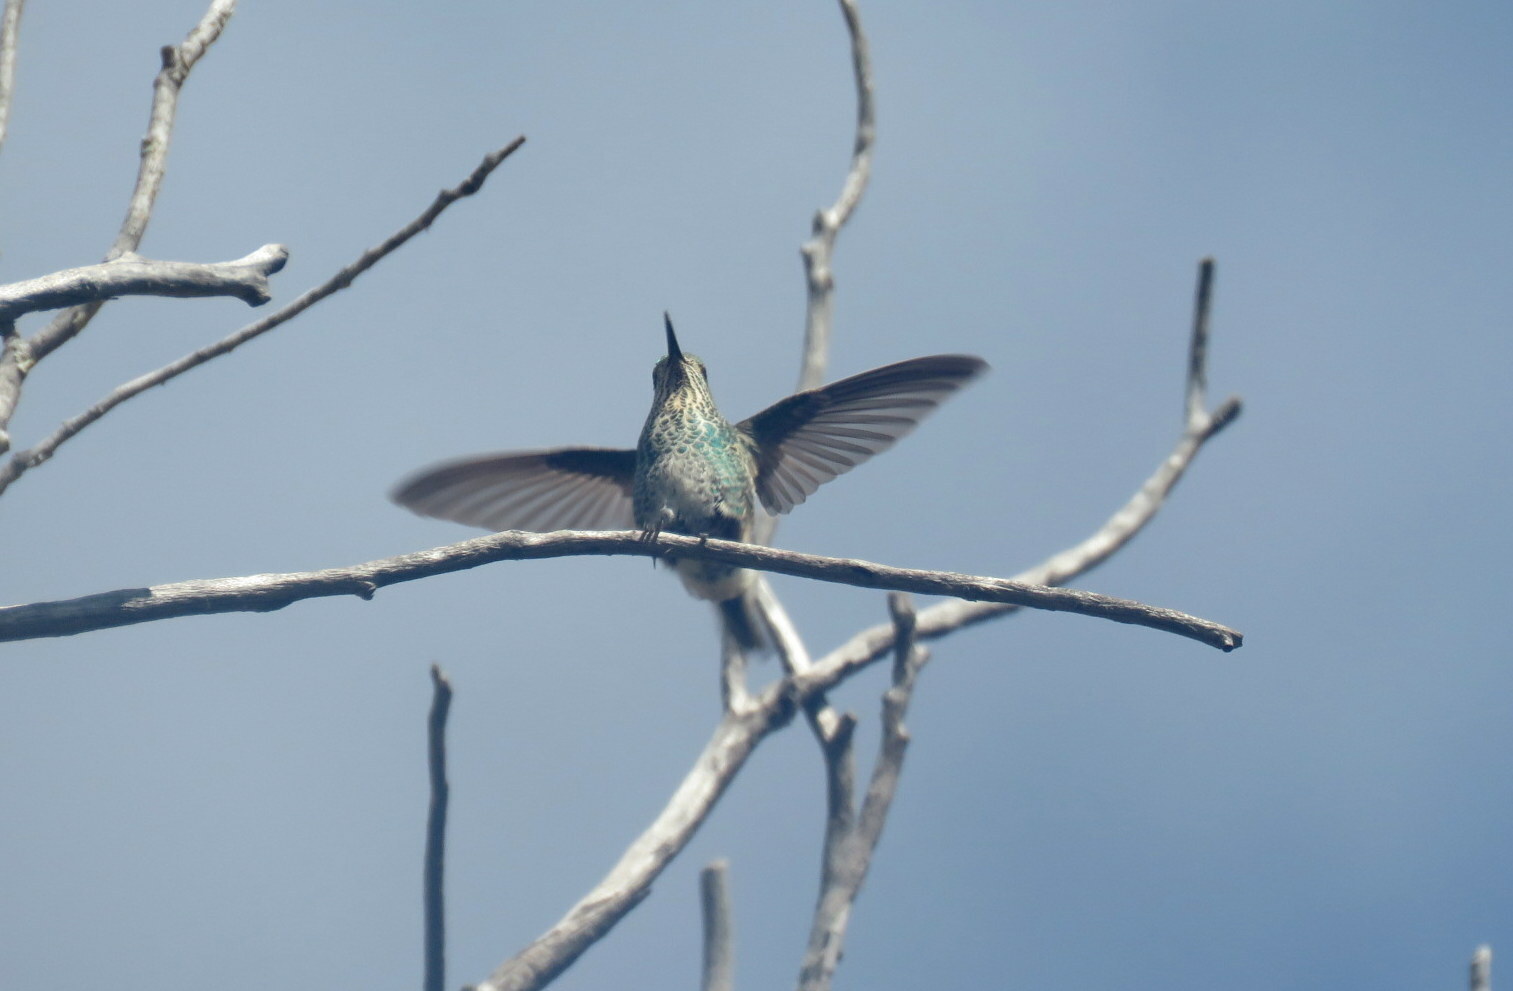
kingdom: Animalia
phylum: Chordata
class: Aves
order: Apodiformes
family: Trochilidae
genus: Sappho
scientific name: Sappho sparganurus
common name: Red-tailed comet
